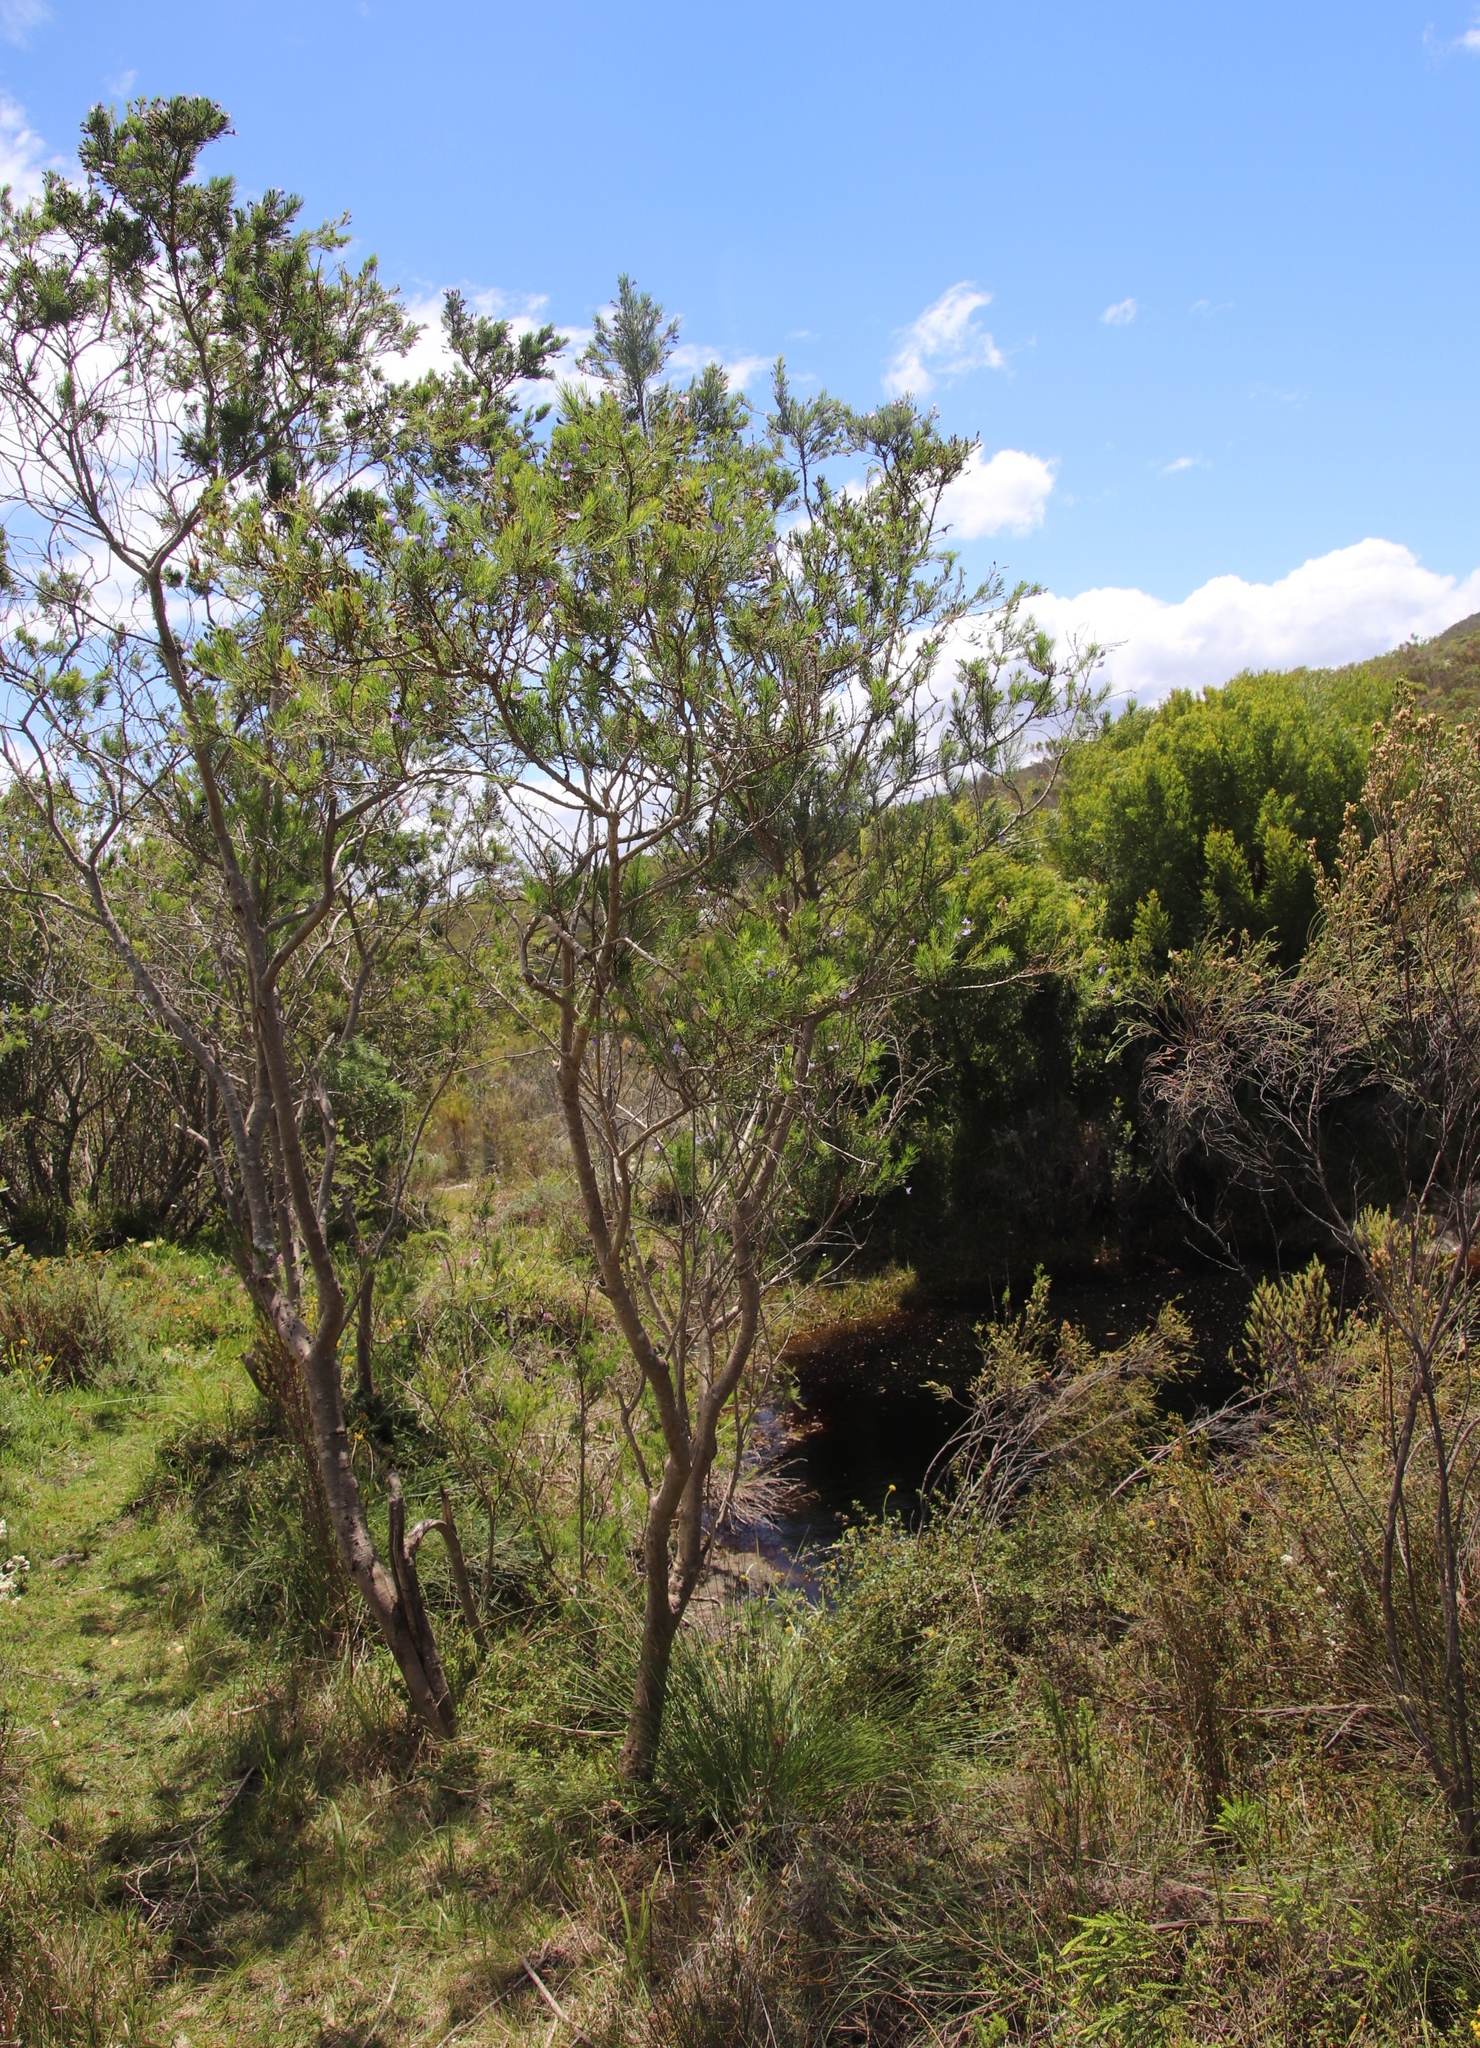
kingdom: Plantae
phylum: Tracheophyta
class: Magnoliopsida
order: Fabales
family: Fabaceae
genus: Psoralea
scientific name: Psoralea arborea
